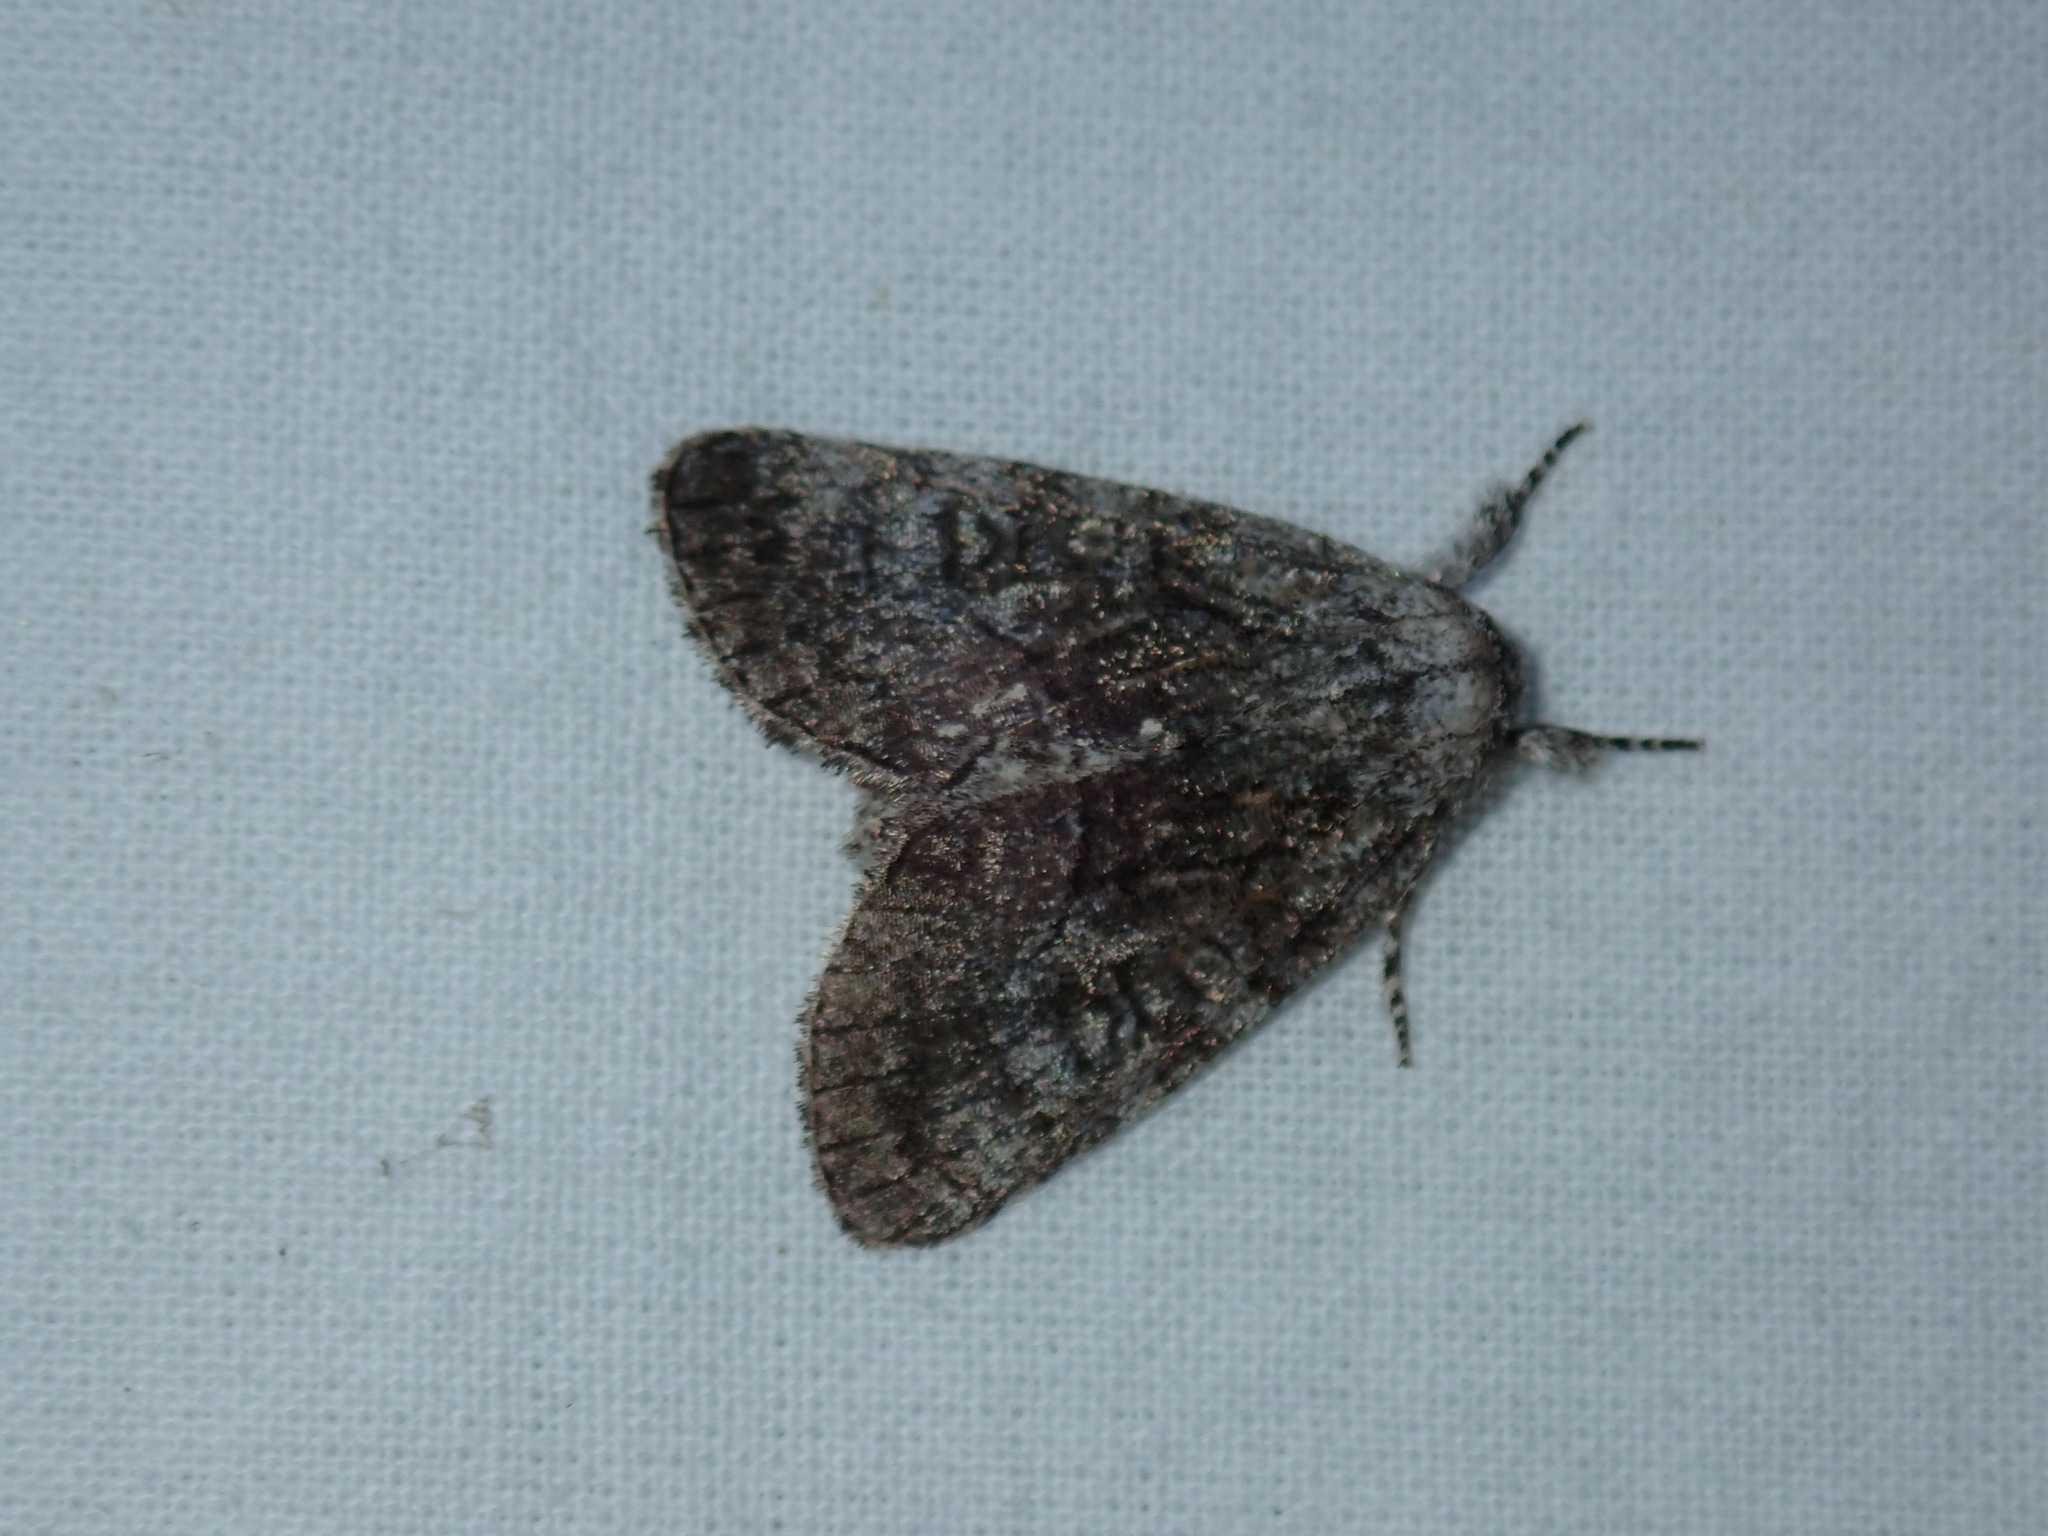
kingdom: Animalia
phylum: Arthropoda
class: Insecta
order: Lepidoptera
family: Noctuidae
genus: Raphia
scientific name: Raphia frater
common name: Brother
